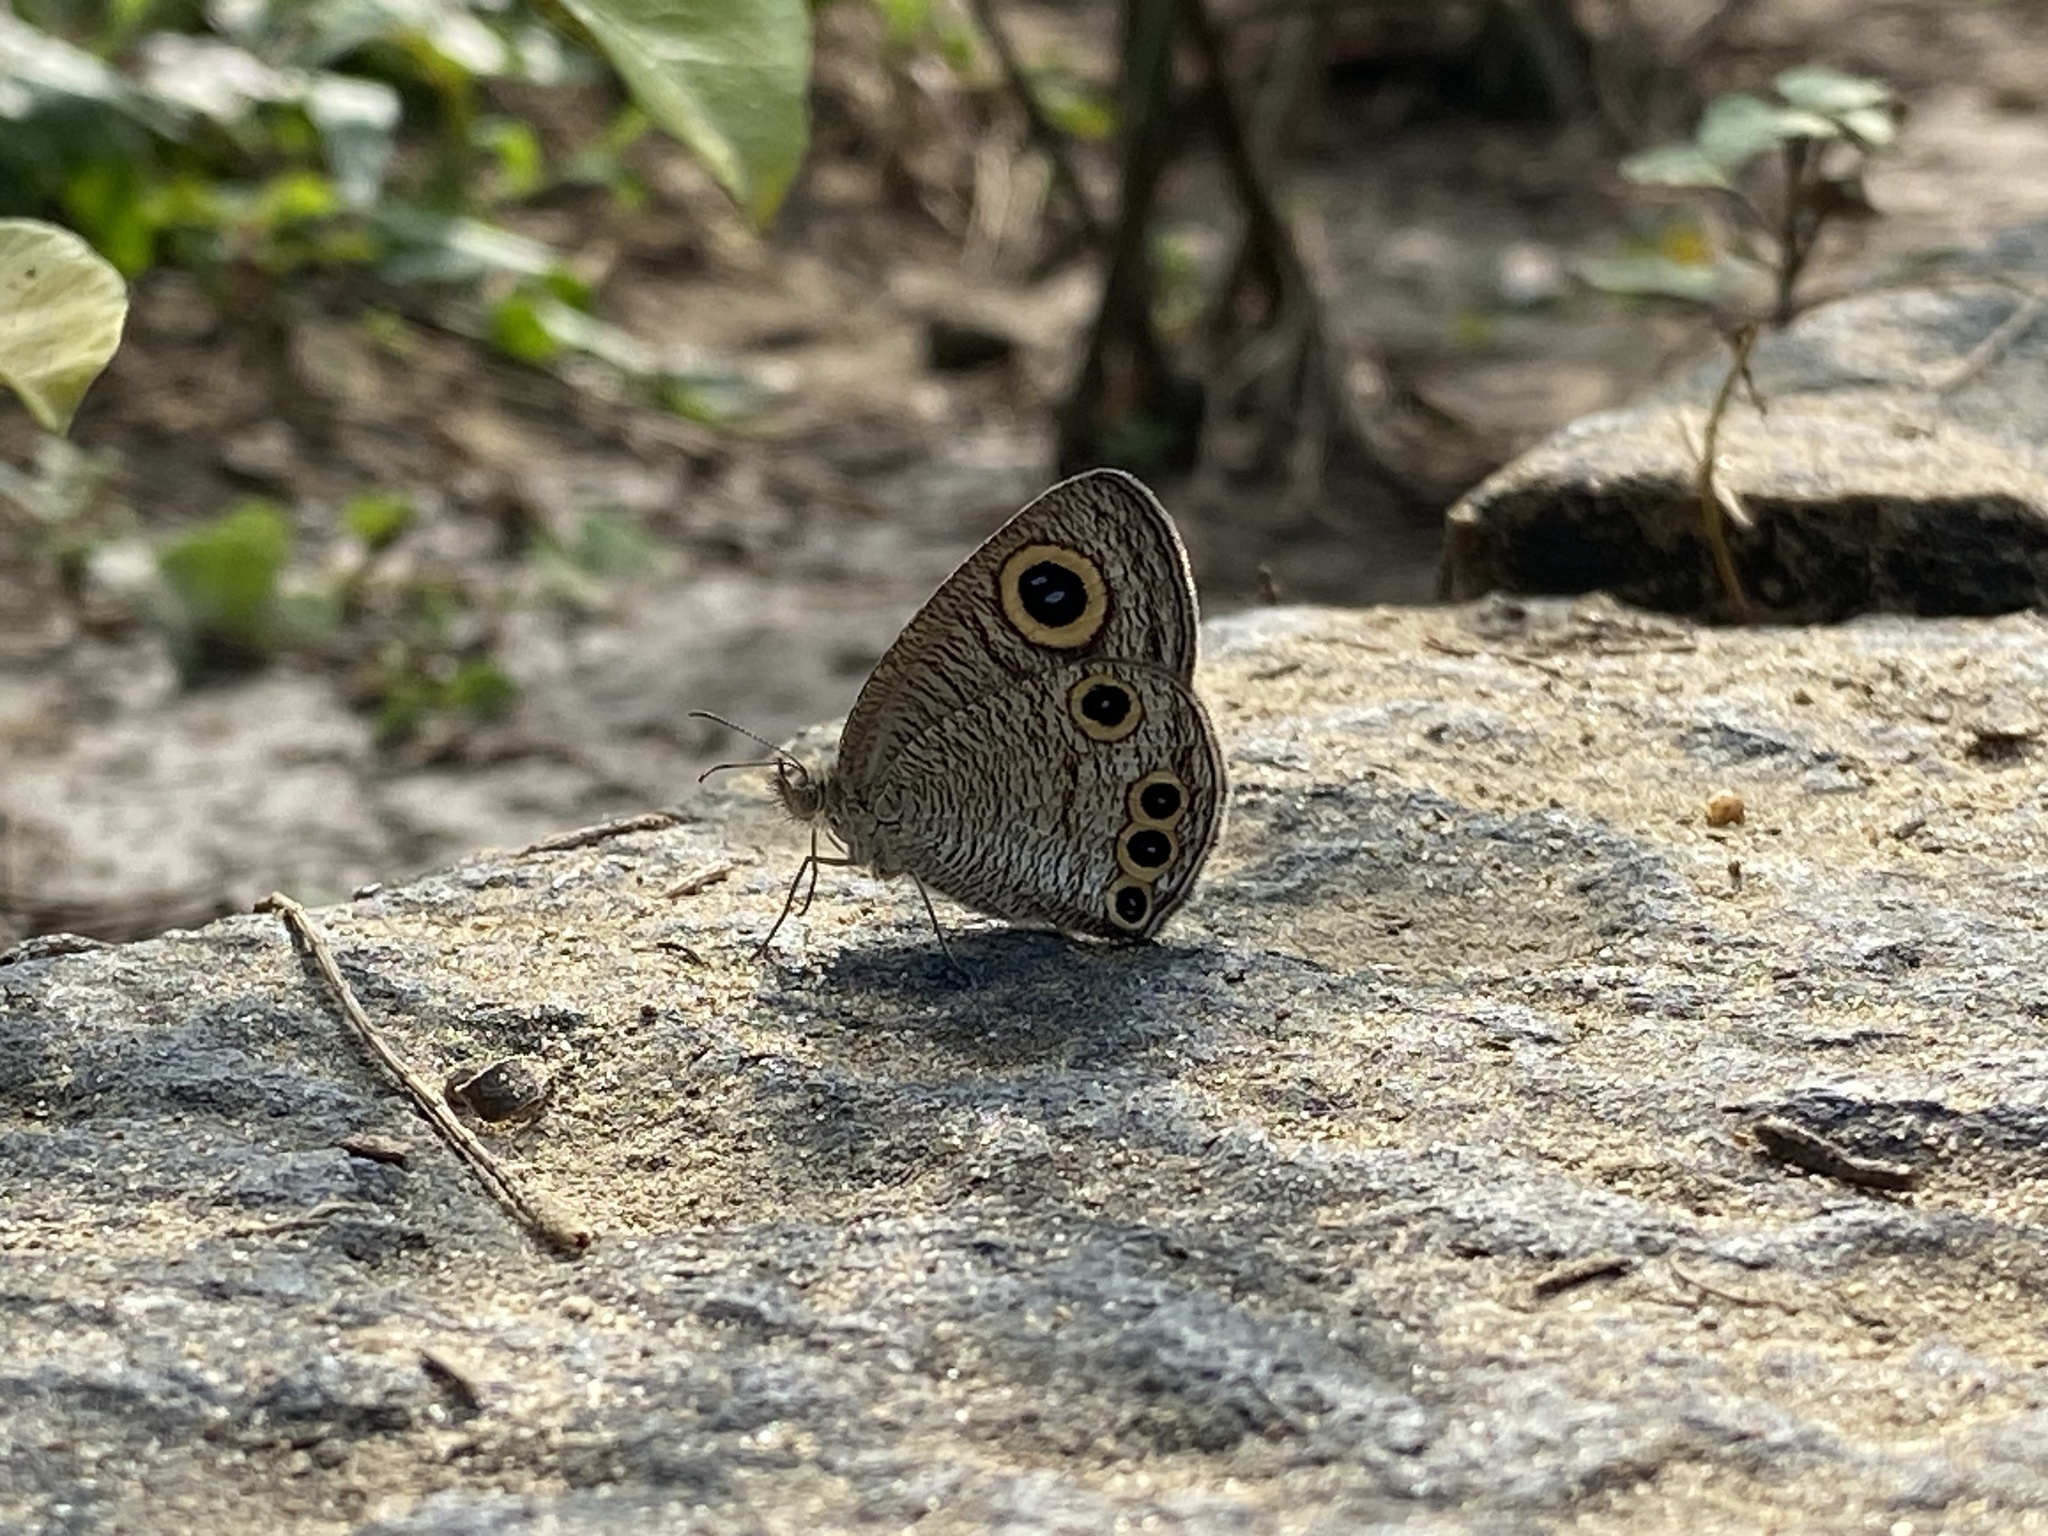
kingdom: Animalia
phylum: Arthropoda
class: Insecta
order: Lepidoptera
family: Nymphalidae
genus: Ypthima
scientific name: Ypthima huebneri
